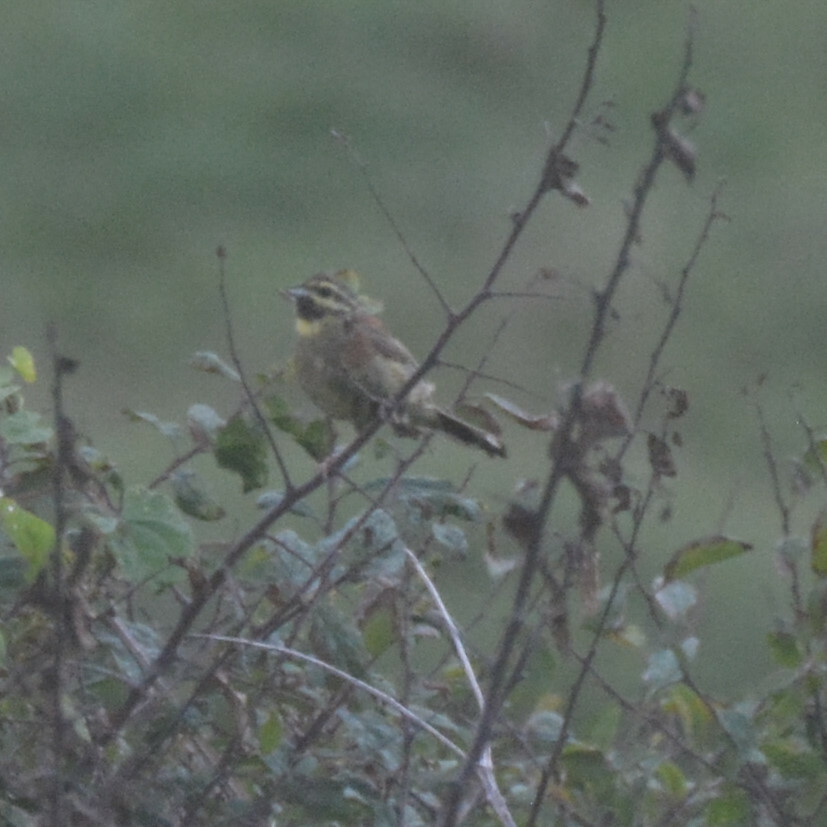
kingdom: Animalia
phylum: Chordata
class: Aves
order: Passeriformes
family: Emberizidae
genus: Emberiza
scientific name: Emberiza cirlus
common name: Cirl bunting
